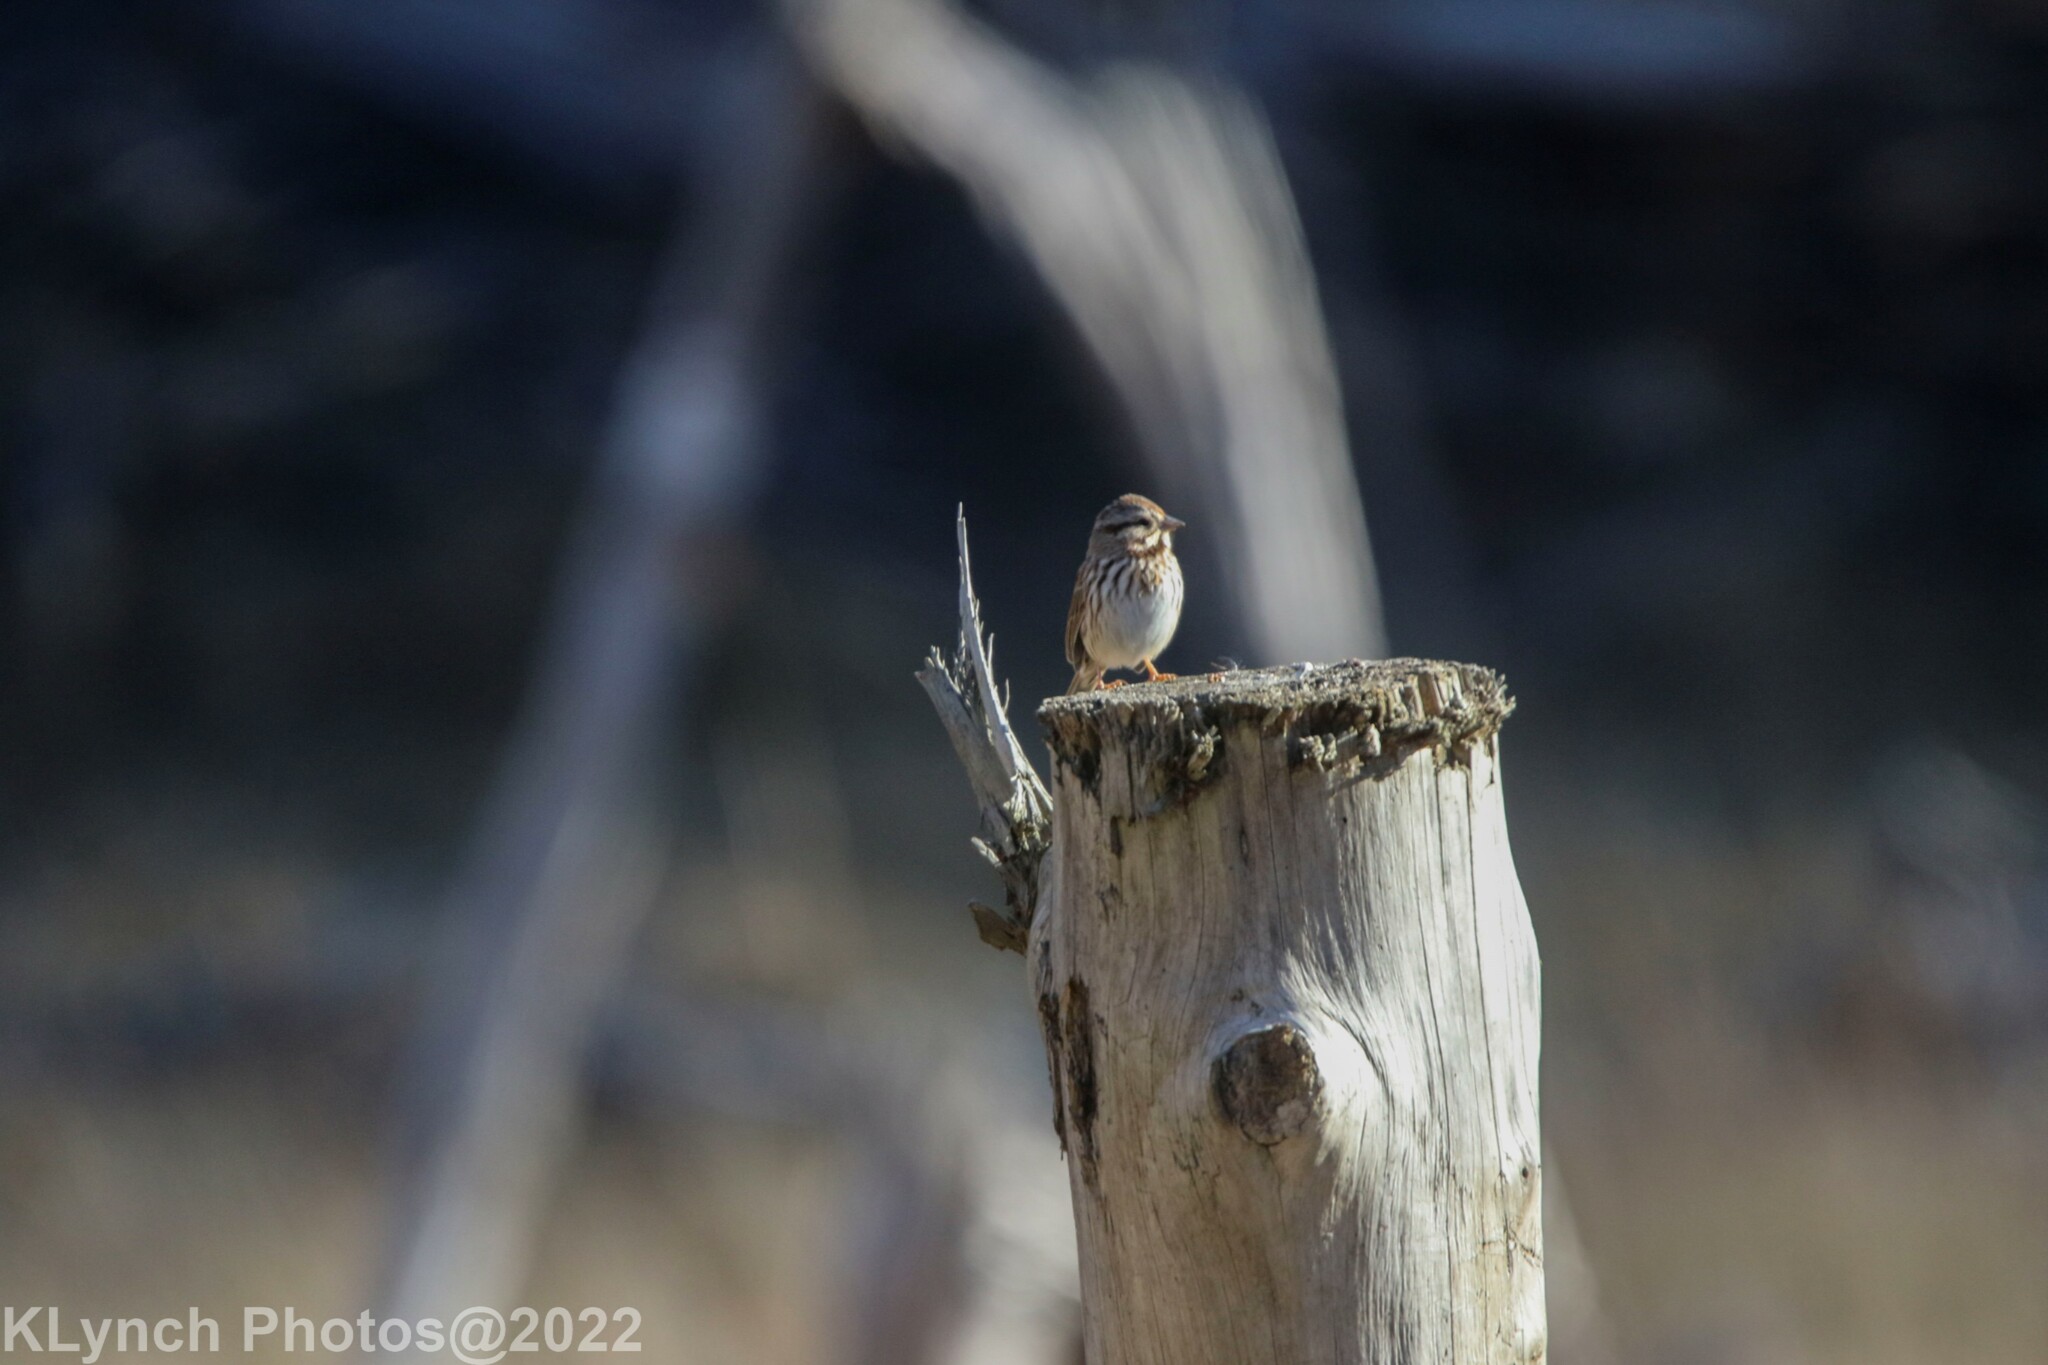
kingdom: Animalia
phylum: Chordata
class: Aves
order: Passeriformes
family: Passerellidae
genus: Melospiza
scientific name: Melospiza melodia
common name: Song sparrow
